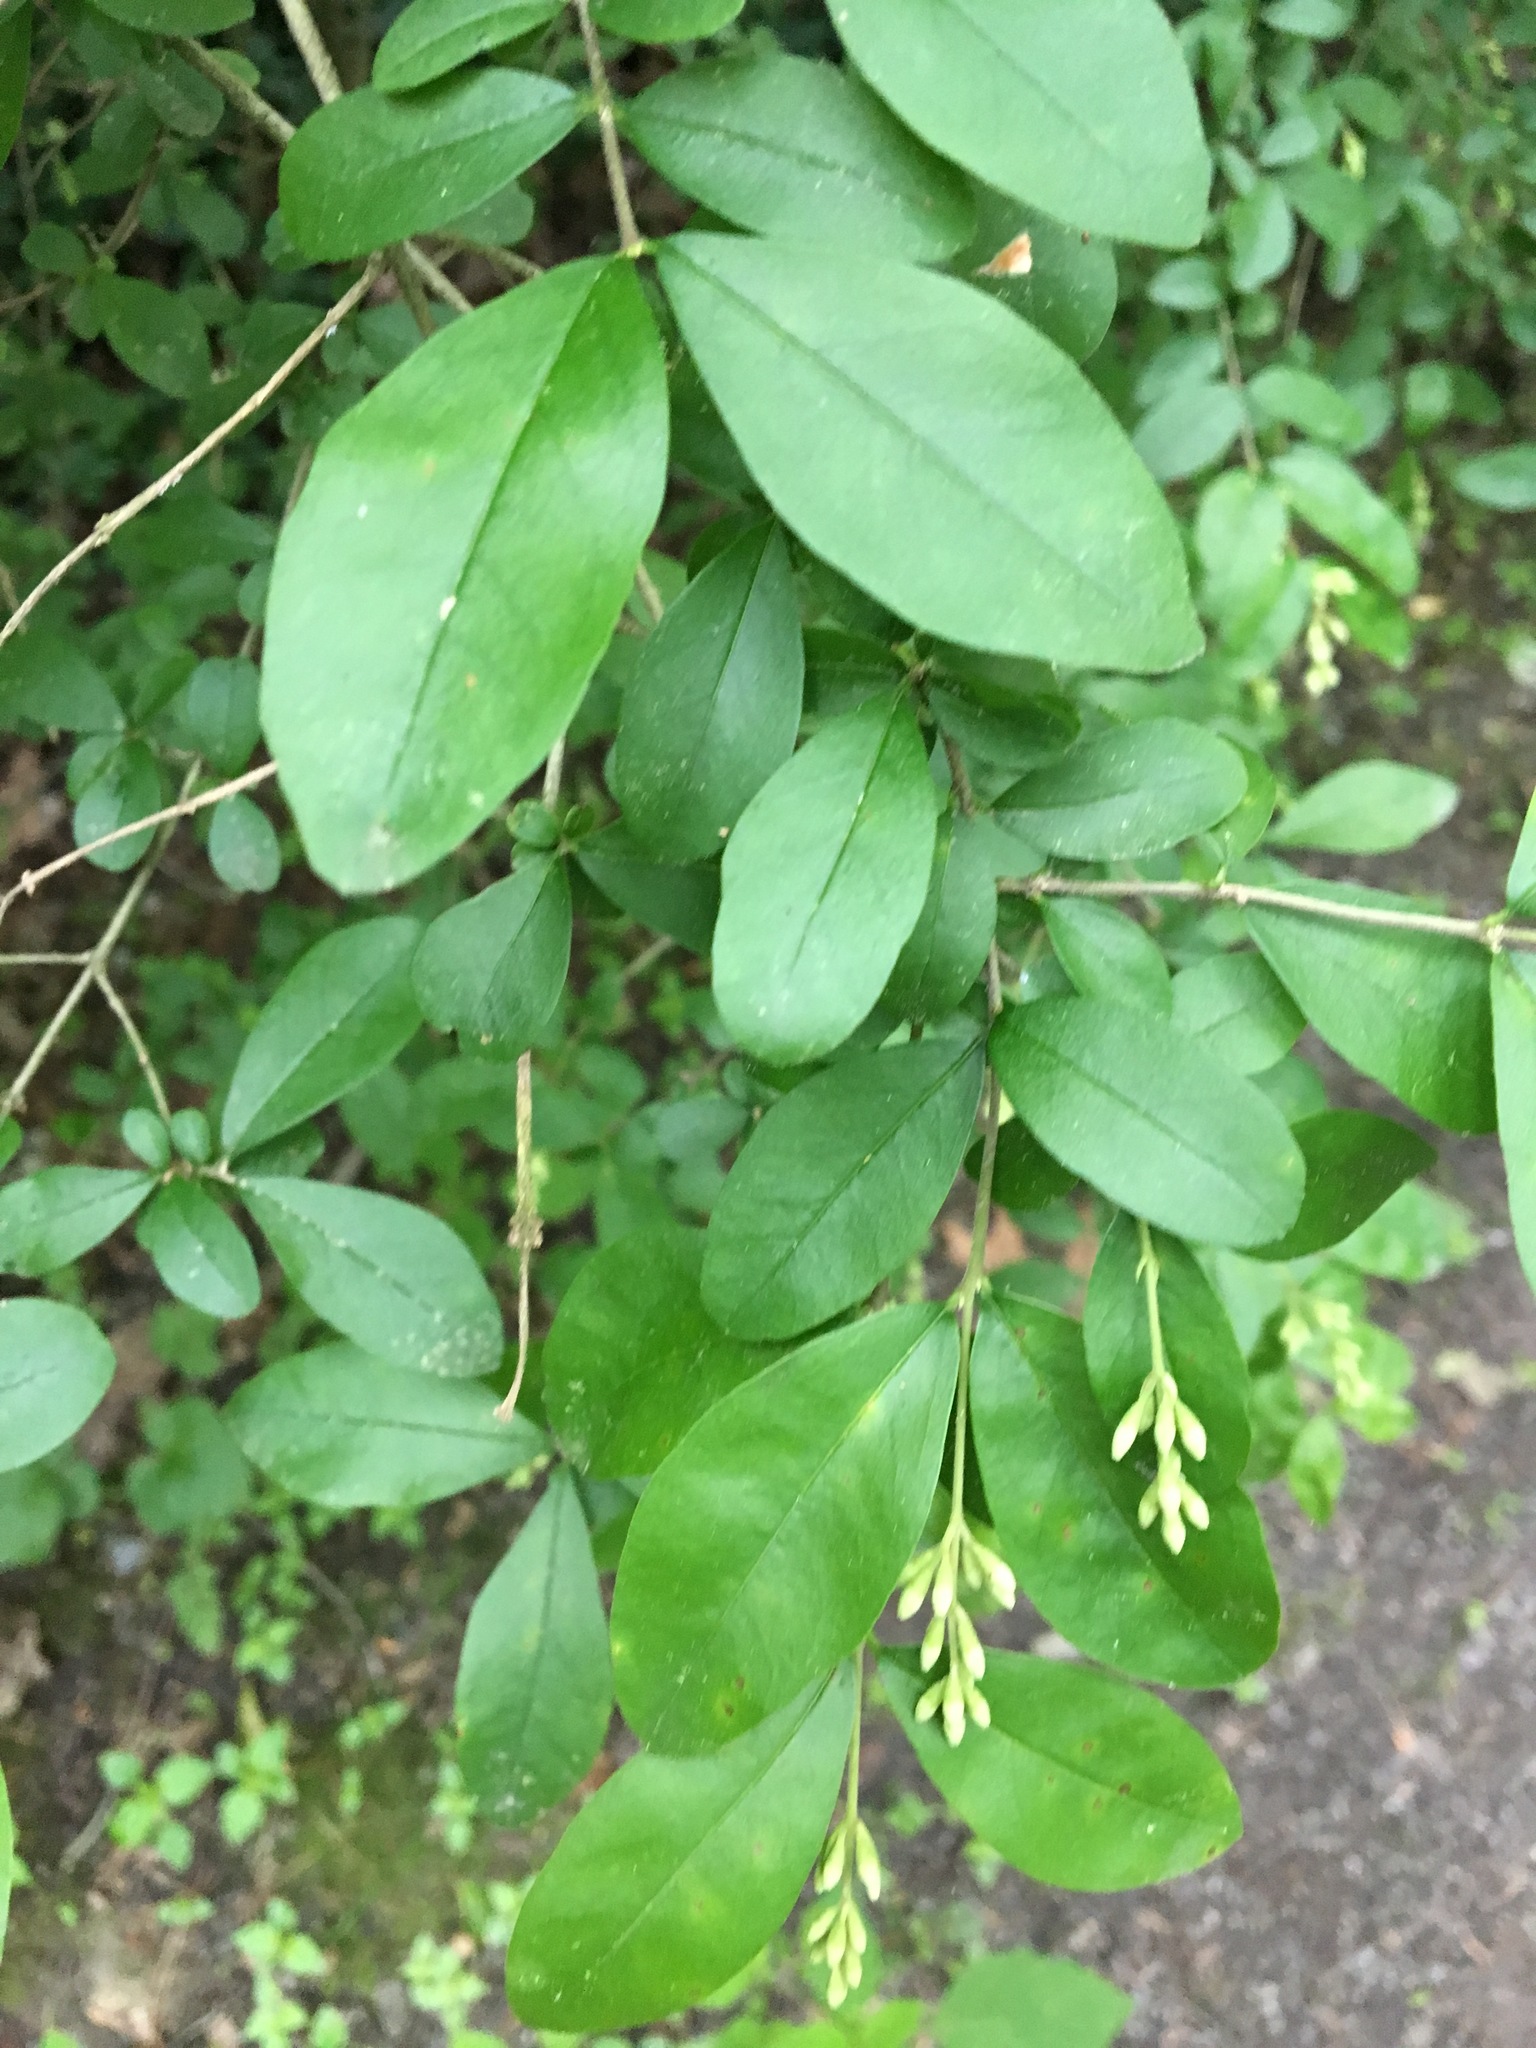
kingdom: Plantae
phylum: Tracheophyta
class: Magnoliopsida
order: Lamiales
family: Oleaceae
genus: Ligustrum
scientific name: Ligustrum obtusifolium
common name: Border privet
